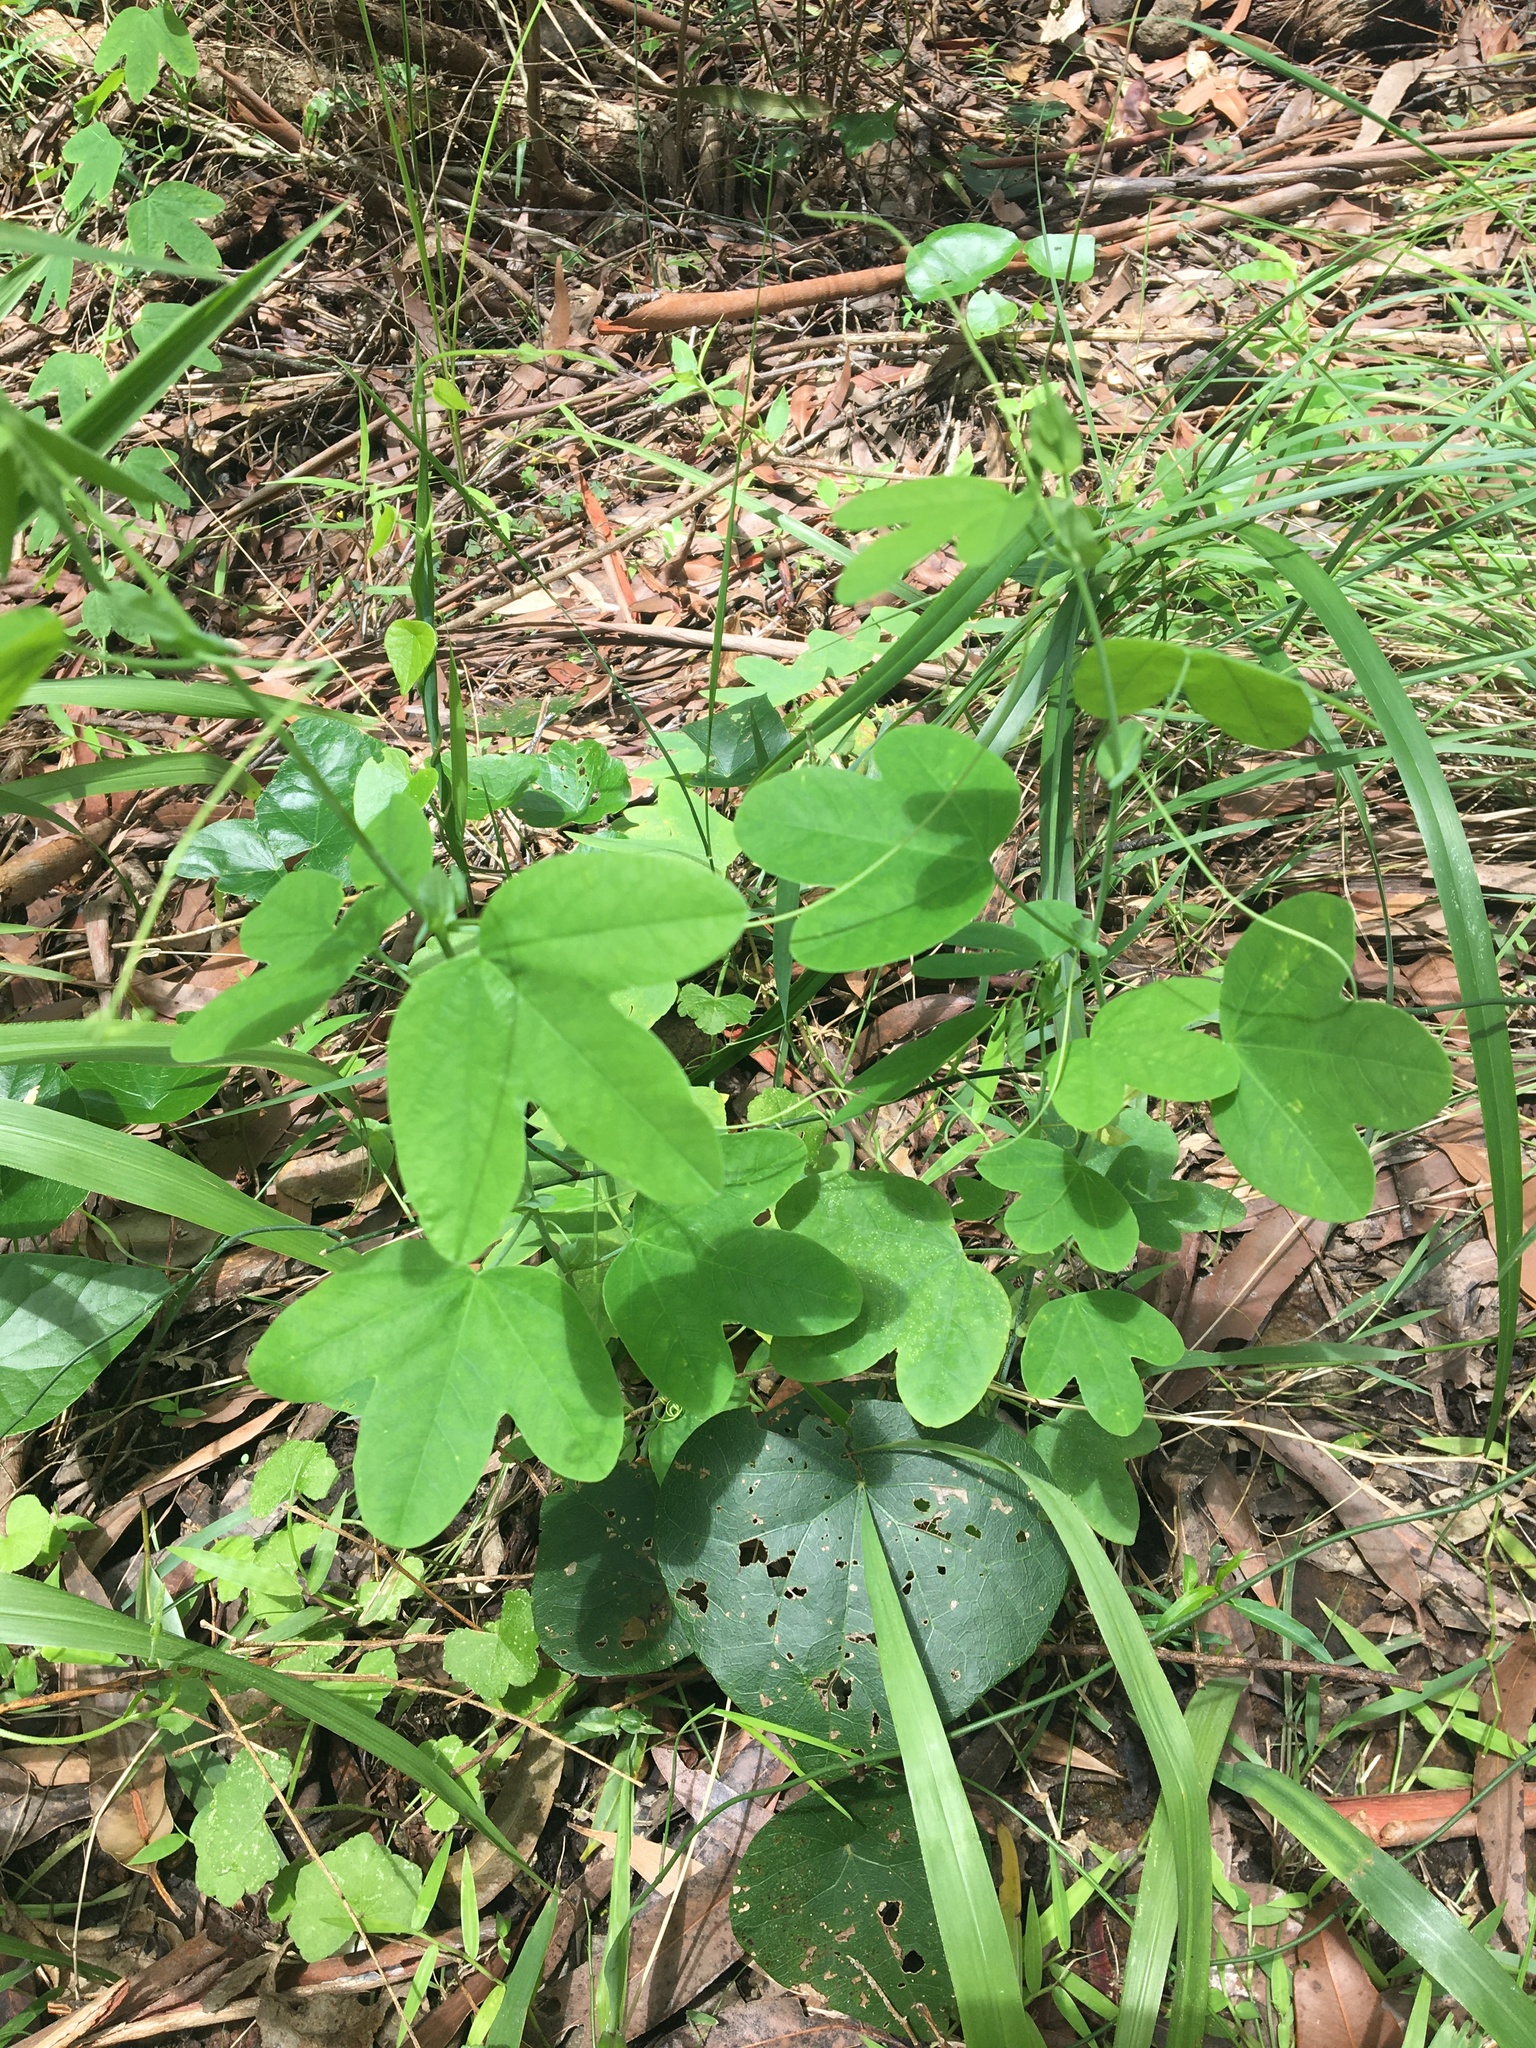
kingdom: Plantae
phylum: Tracheophyta
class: Magnoliopsida
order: Malpighiales
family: Passifloraceae
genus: Passiflora
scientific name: Passiflora subpeltata
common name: White passionflower
